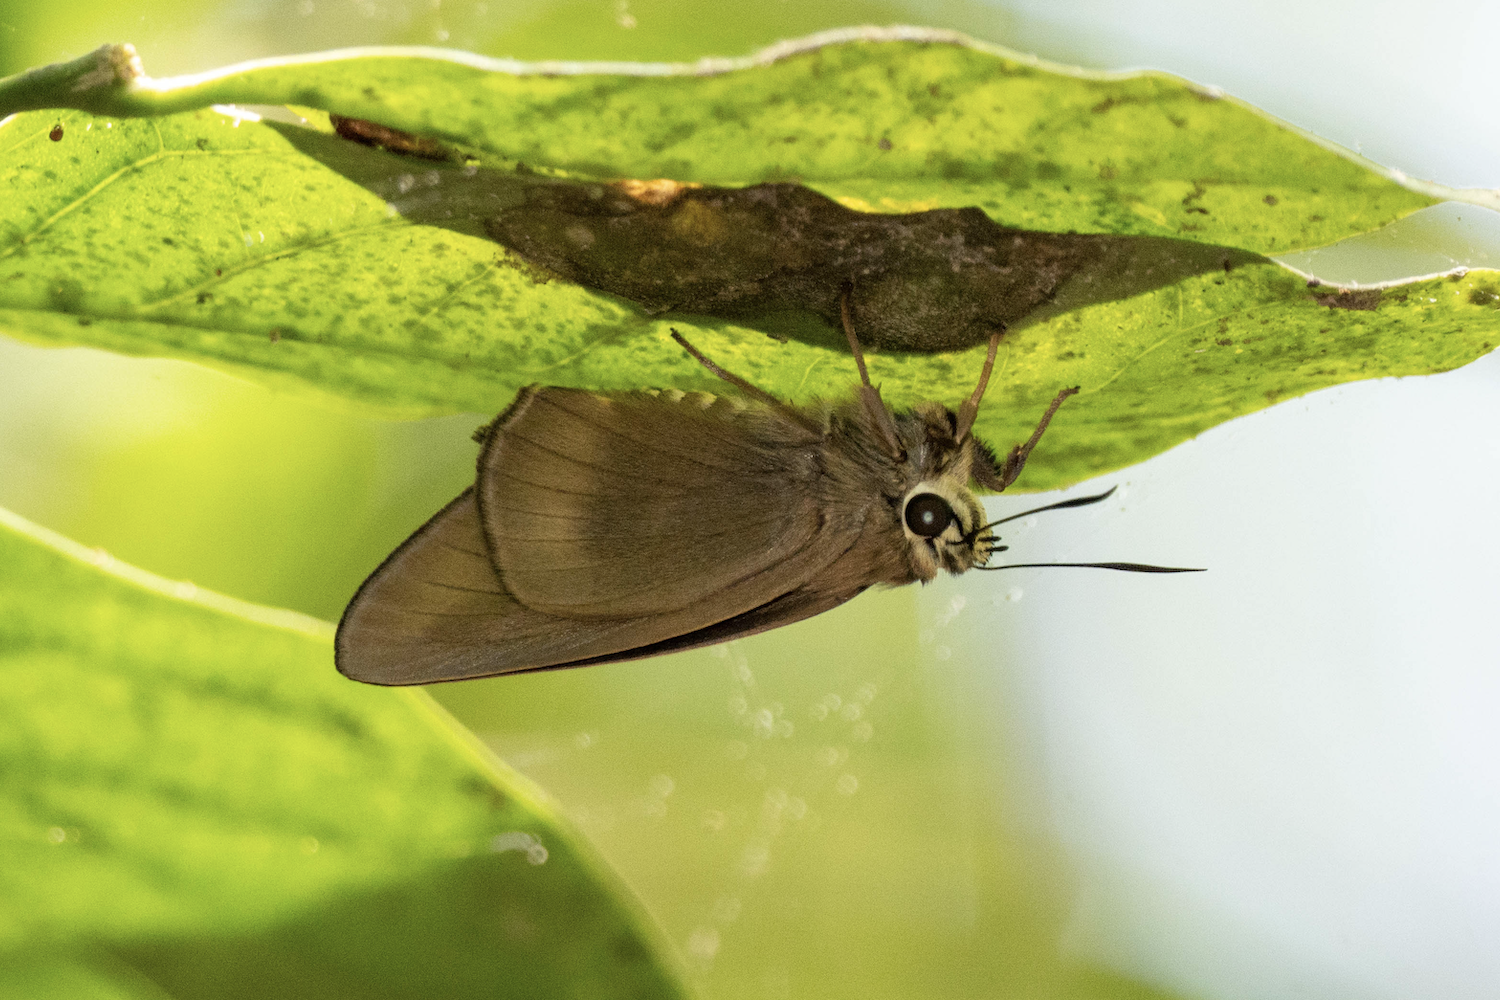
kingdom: Animalia
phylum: Arthropoda
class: Insecta
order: Lepidoptera
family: Hesperiidae
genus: Badamia
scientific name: Badamia exclamationis
